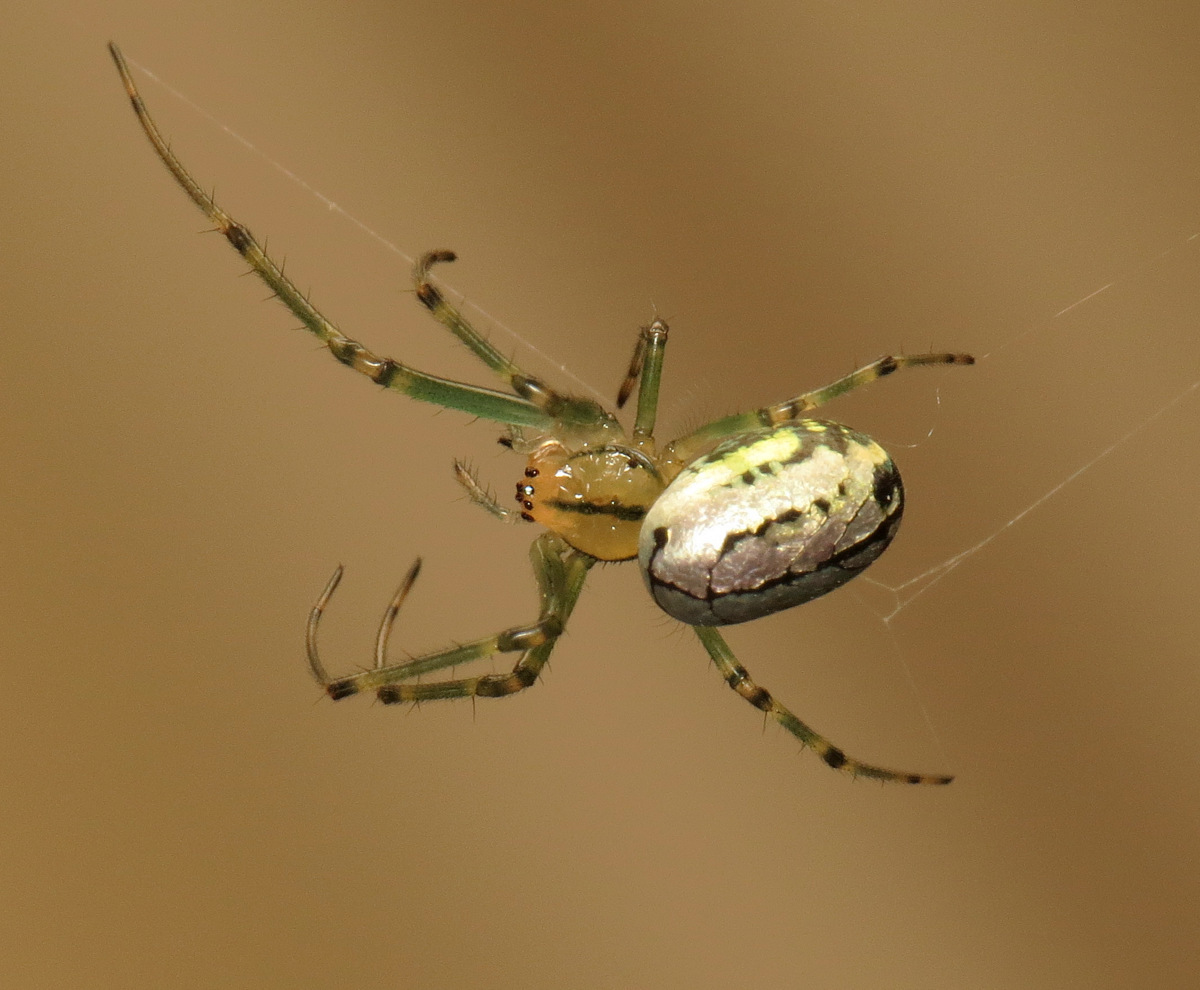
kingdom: Animalia
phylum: Arthropoda
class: Arachnida
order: Araneae
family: Tetragnathidae
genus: Leucauge
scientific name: Leucauge venusta
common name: Longjawed orb weavers
